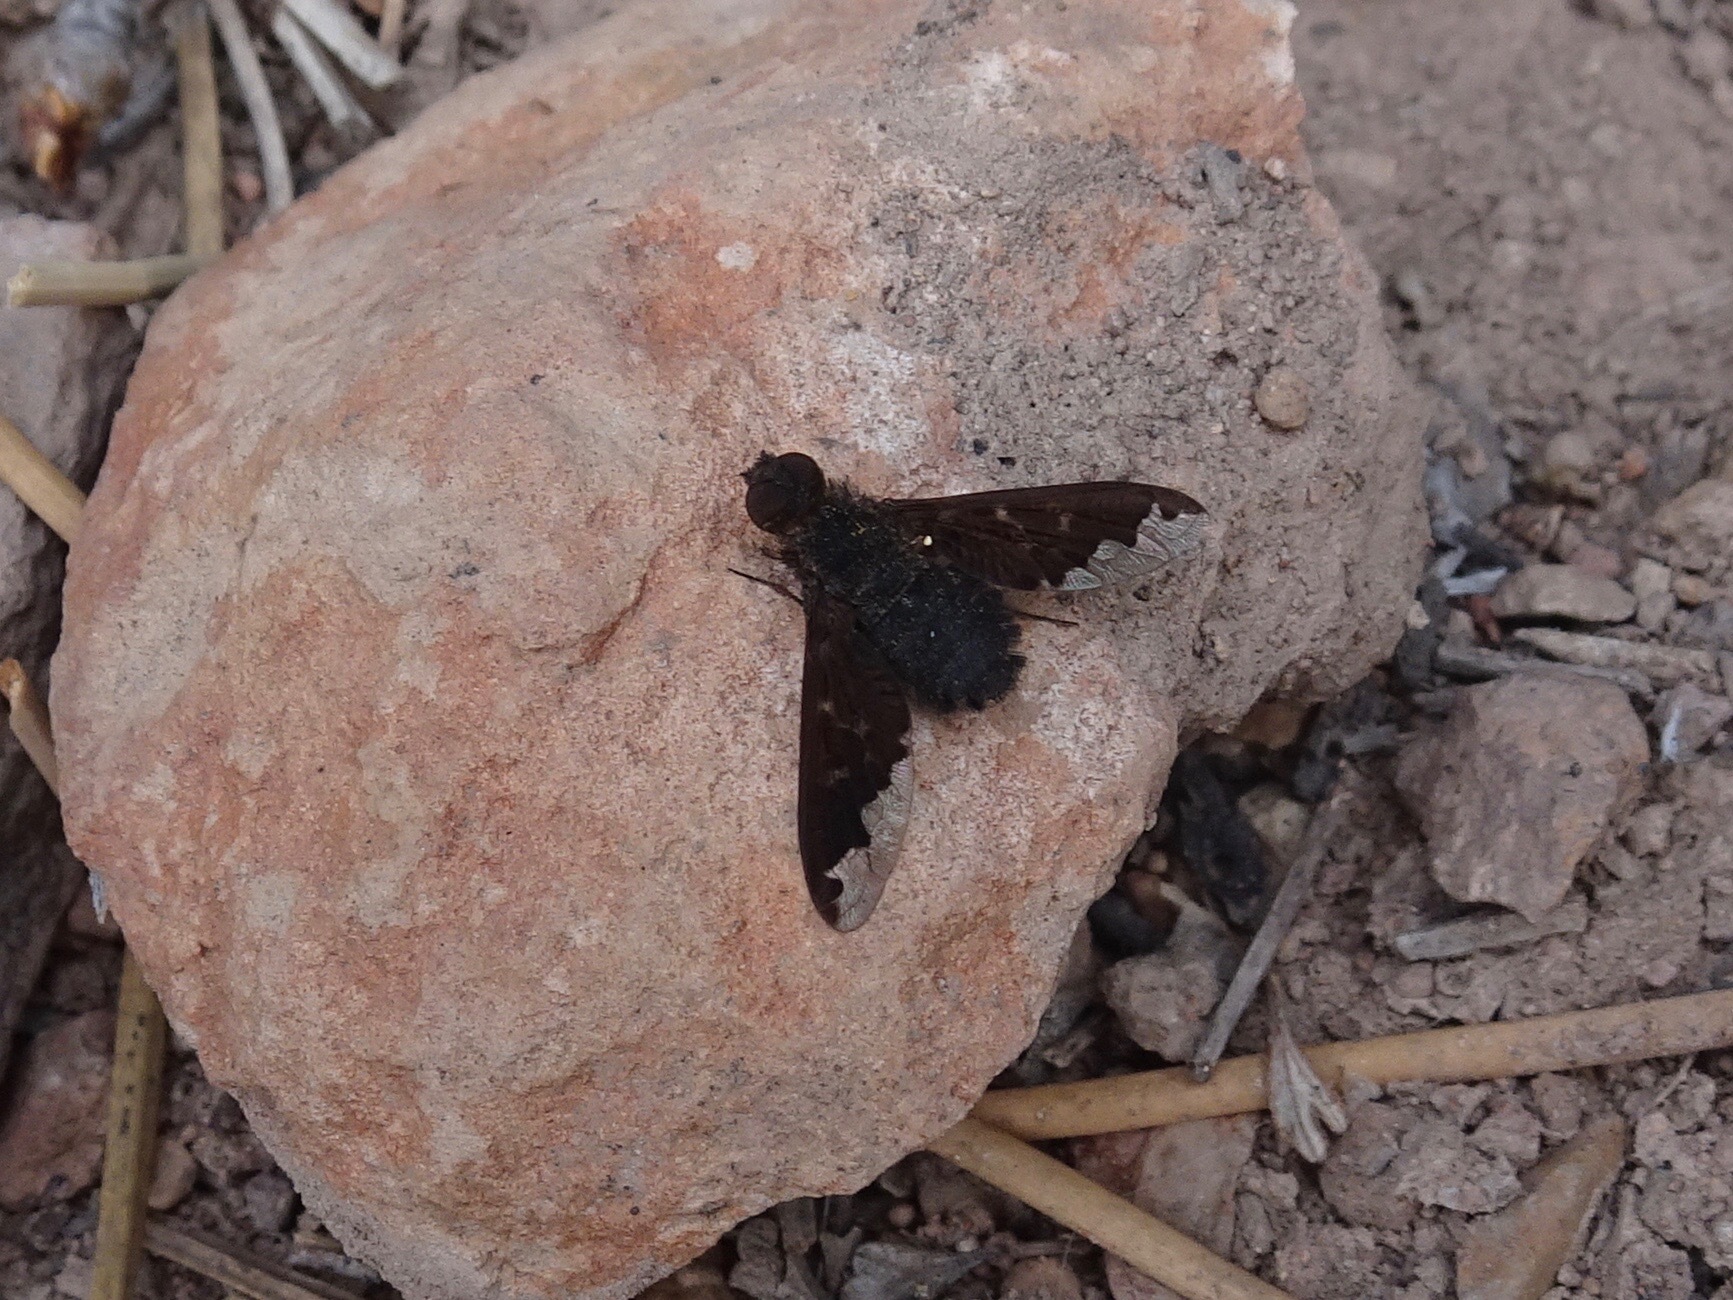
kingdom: Animalia
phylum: Arthropoda
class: Insecta
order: Diptera
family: Bombyliidae
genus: Hemipenthes
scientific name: Hemipenthes sinuosus
